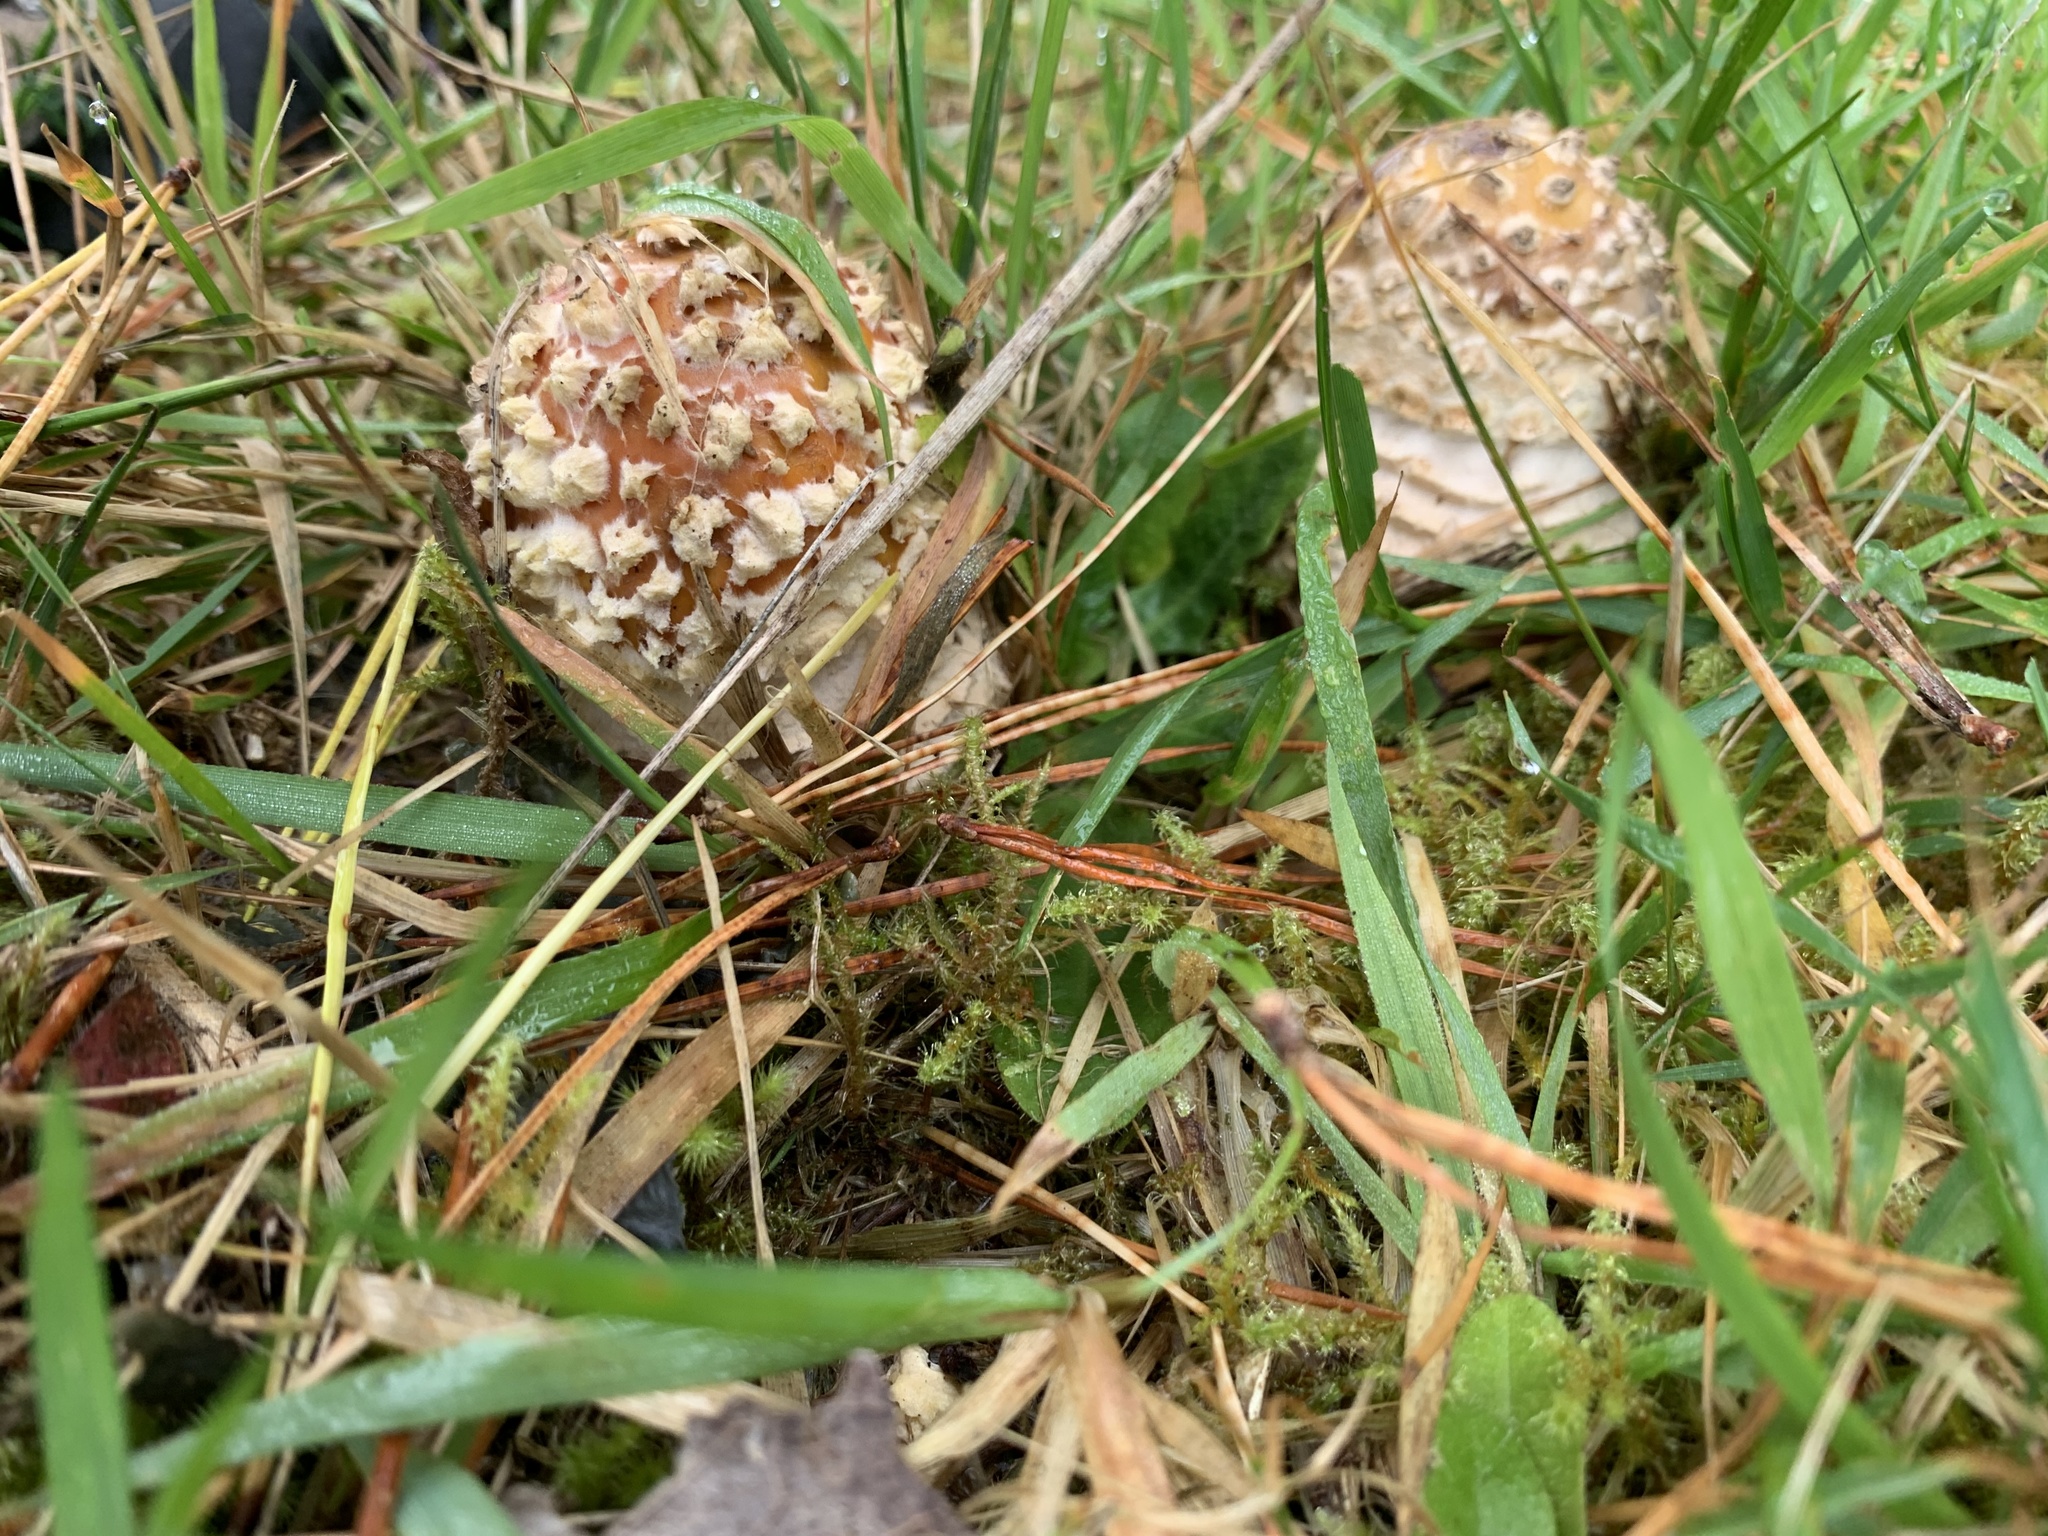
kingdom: Fungi
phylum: Basidiomycota
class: Agaricomycetes
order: Agaricales
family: Amanitaceae
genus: Amanita
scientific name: Amanita muscaria
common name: Fly agaric
